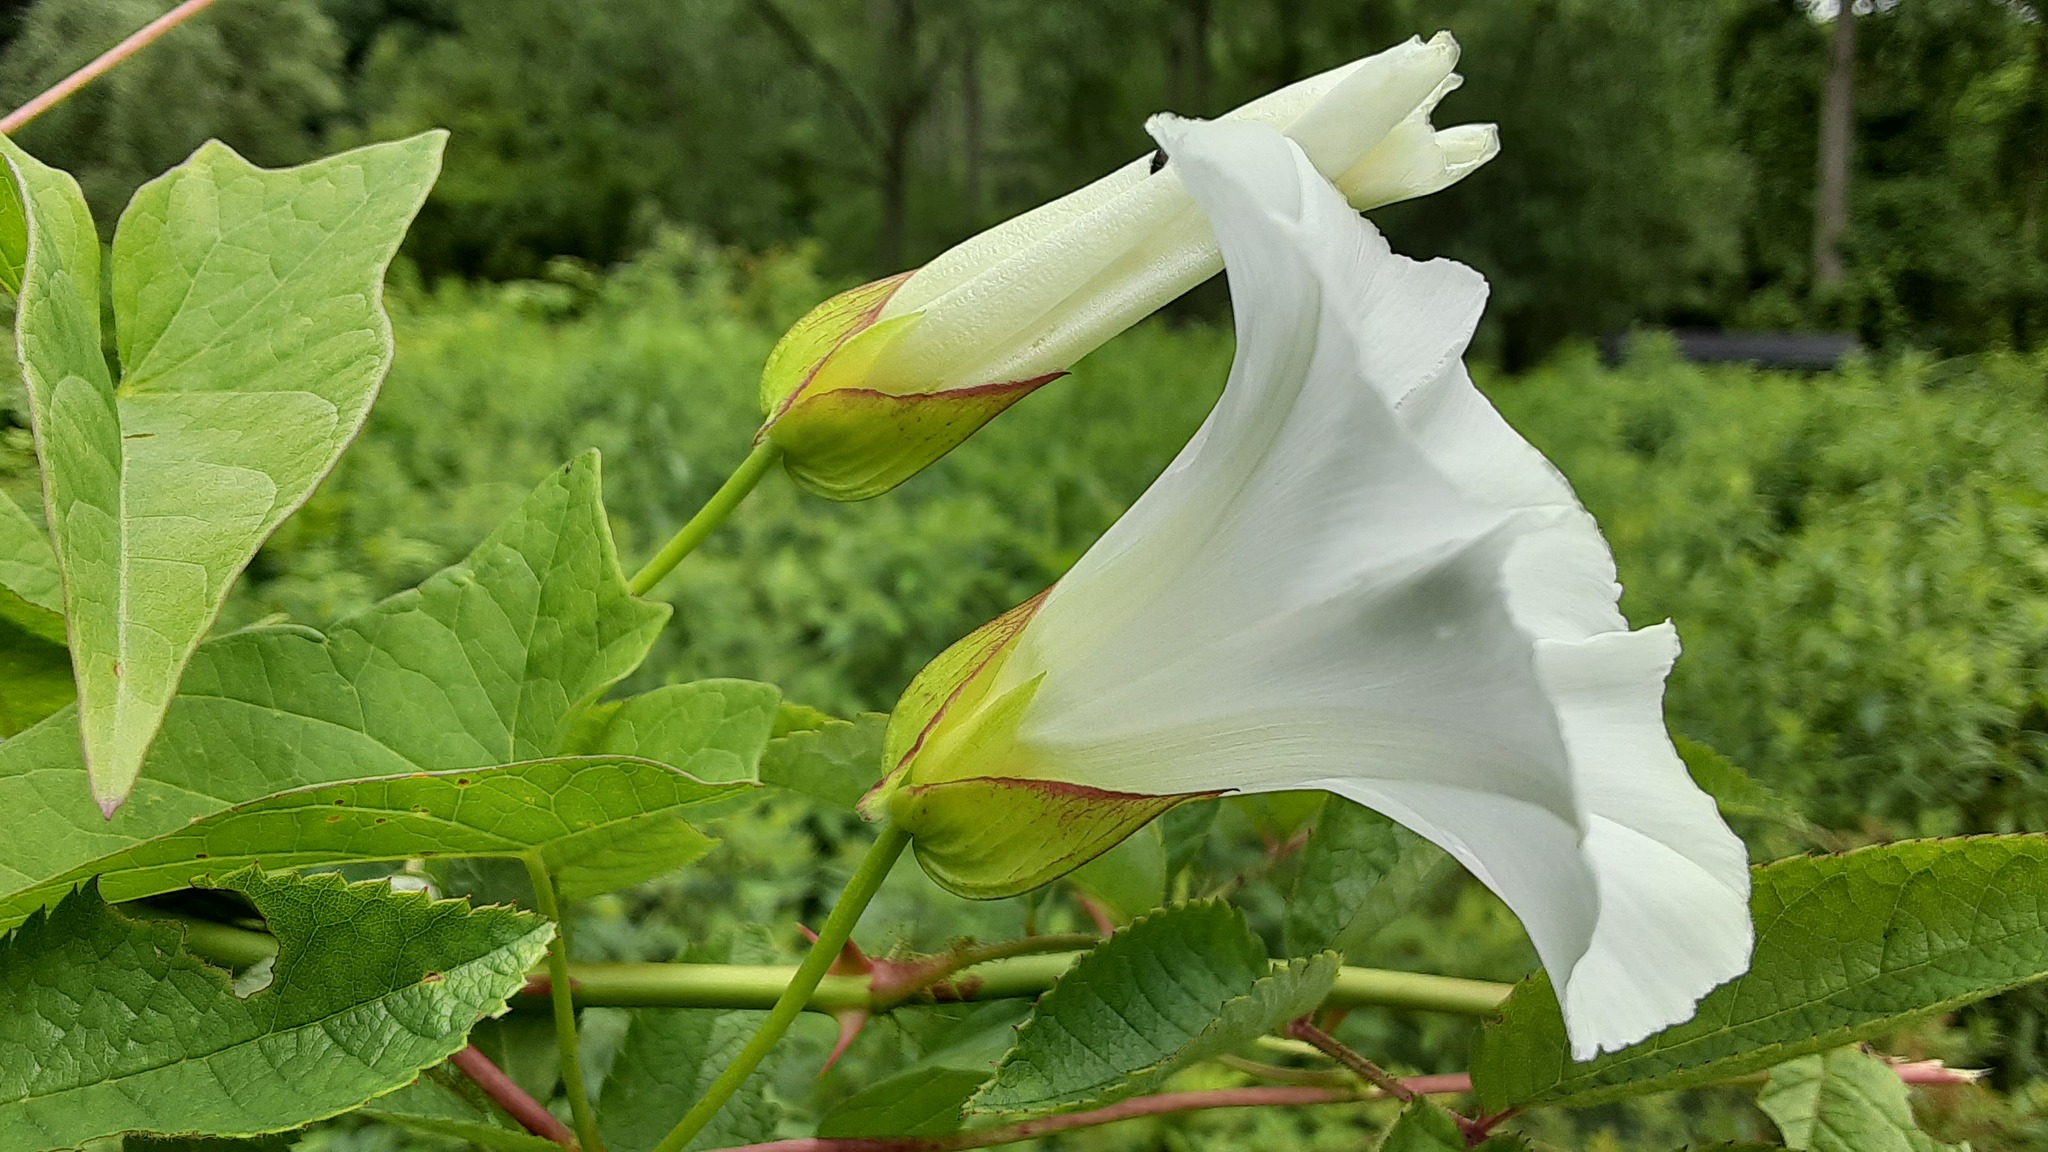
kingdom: Plantae
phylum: Tracheophyta
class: Magnoliopsida
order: Solanales
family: Convolvulaceae
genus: Calystegia
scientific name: Calystegia sepium
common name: Hedge bindweed
